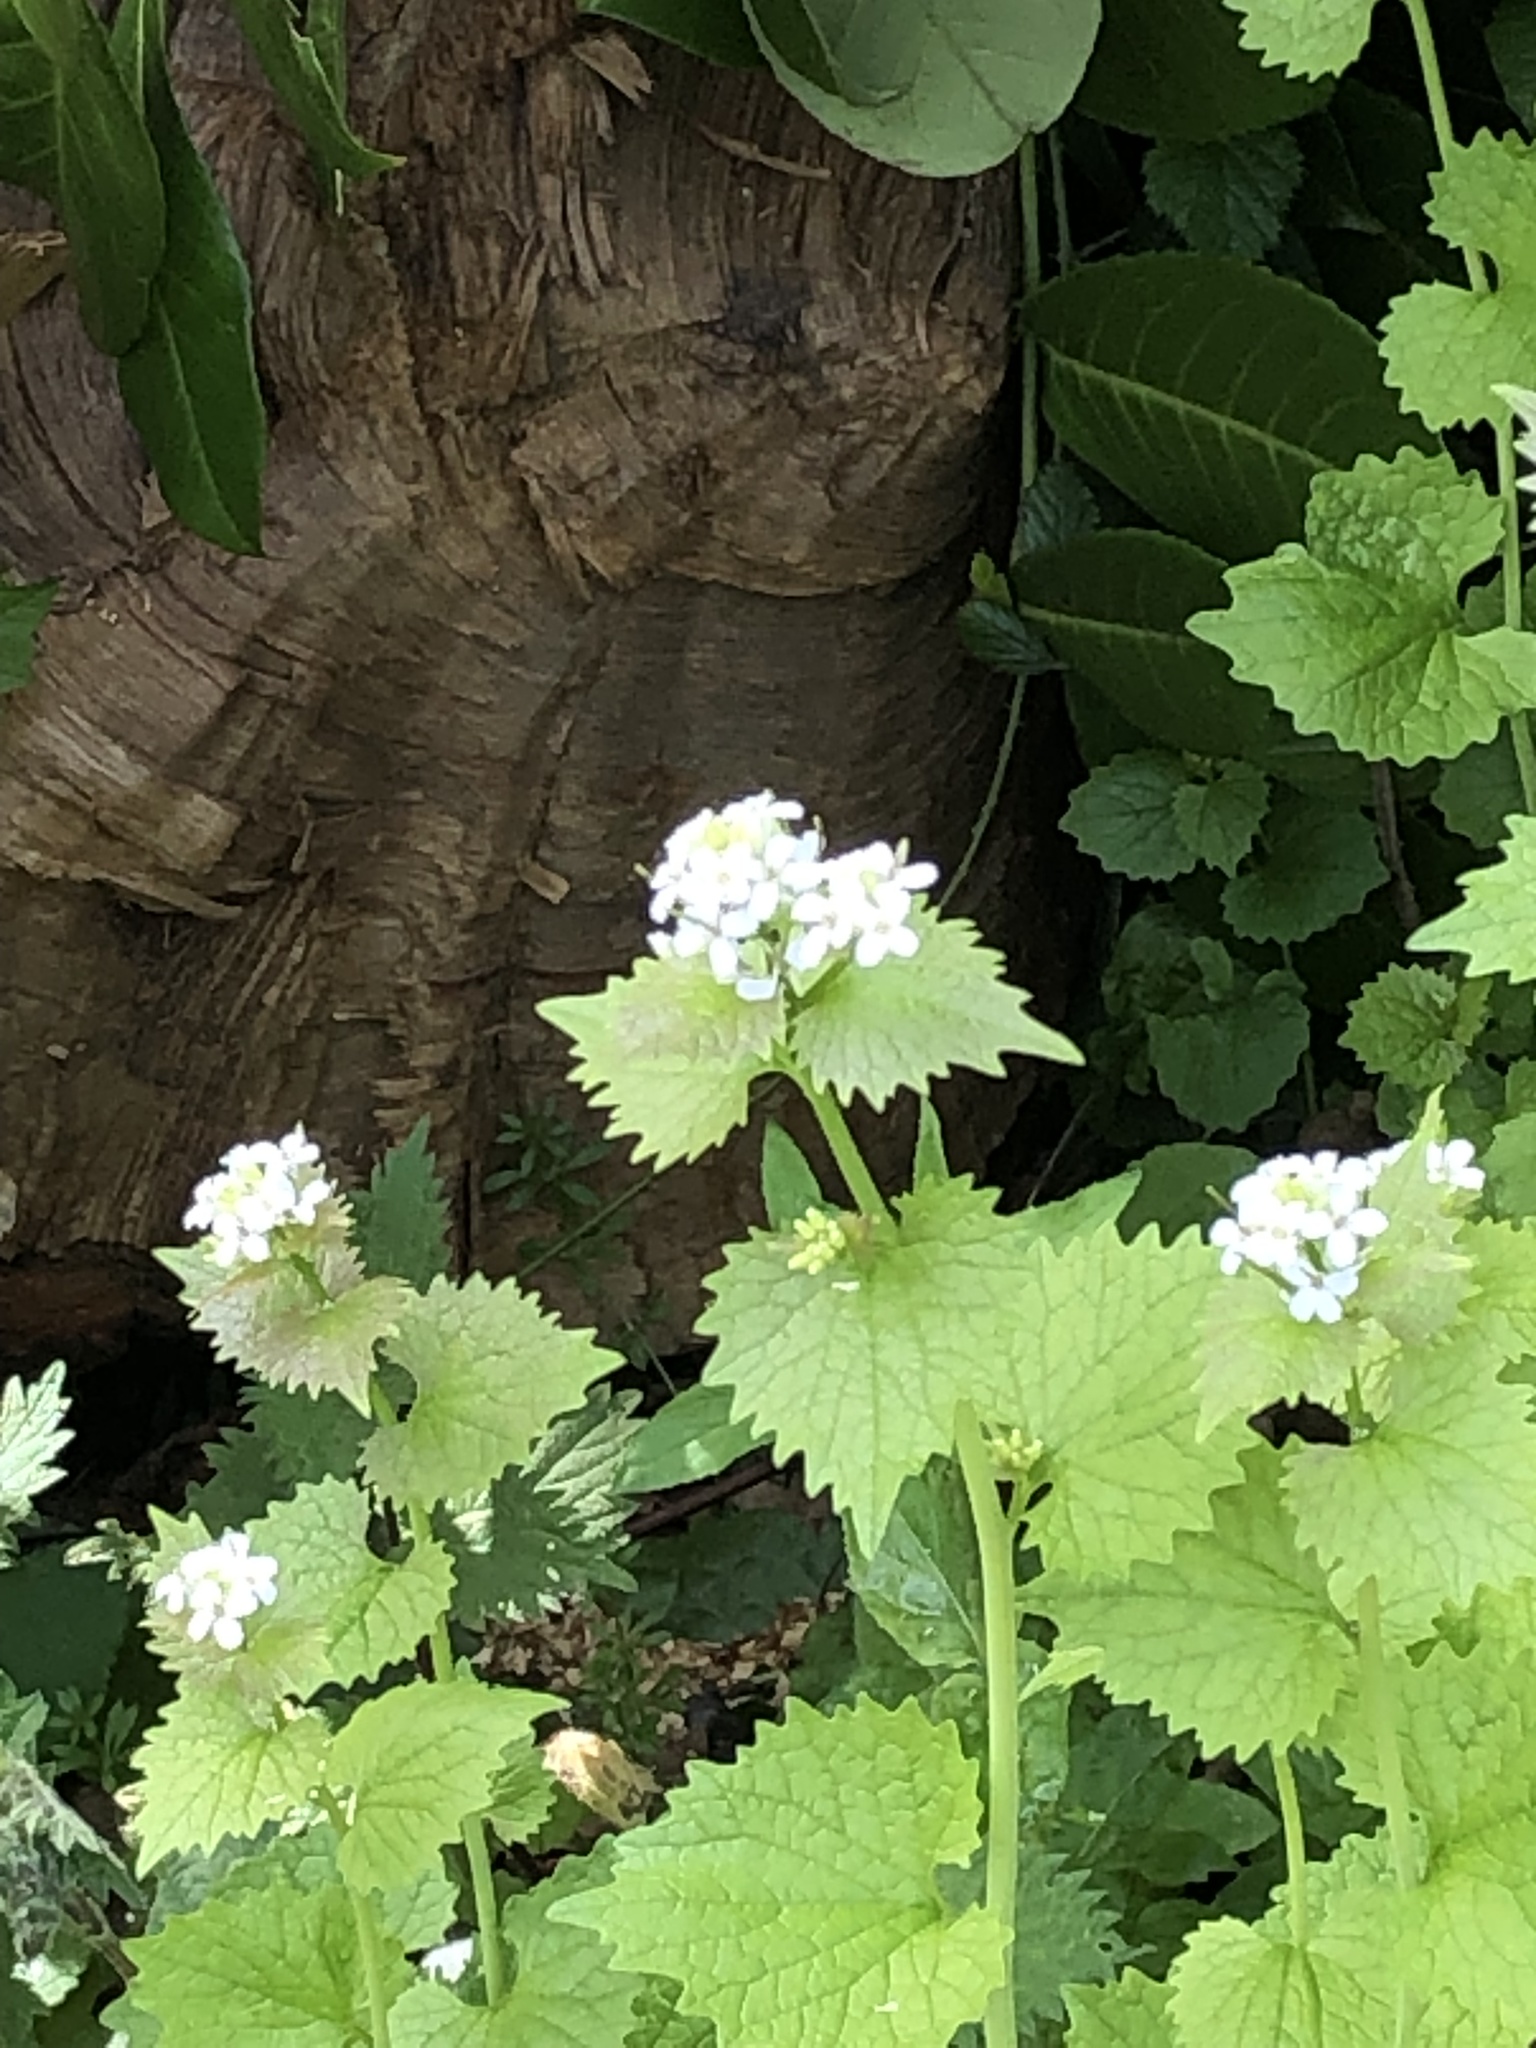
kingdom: Plantae
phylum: Tracheophyta
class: Magnoliopsida
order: Brassicales
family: Brassicaceae
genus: Alliaria
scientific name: Alliaria petiolata
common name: Garlic mustard
